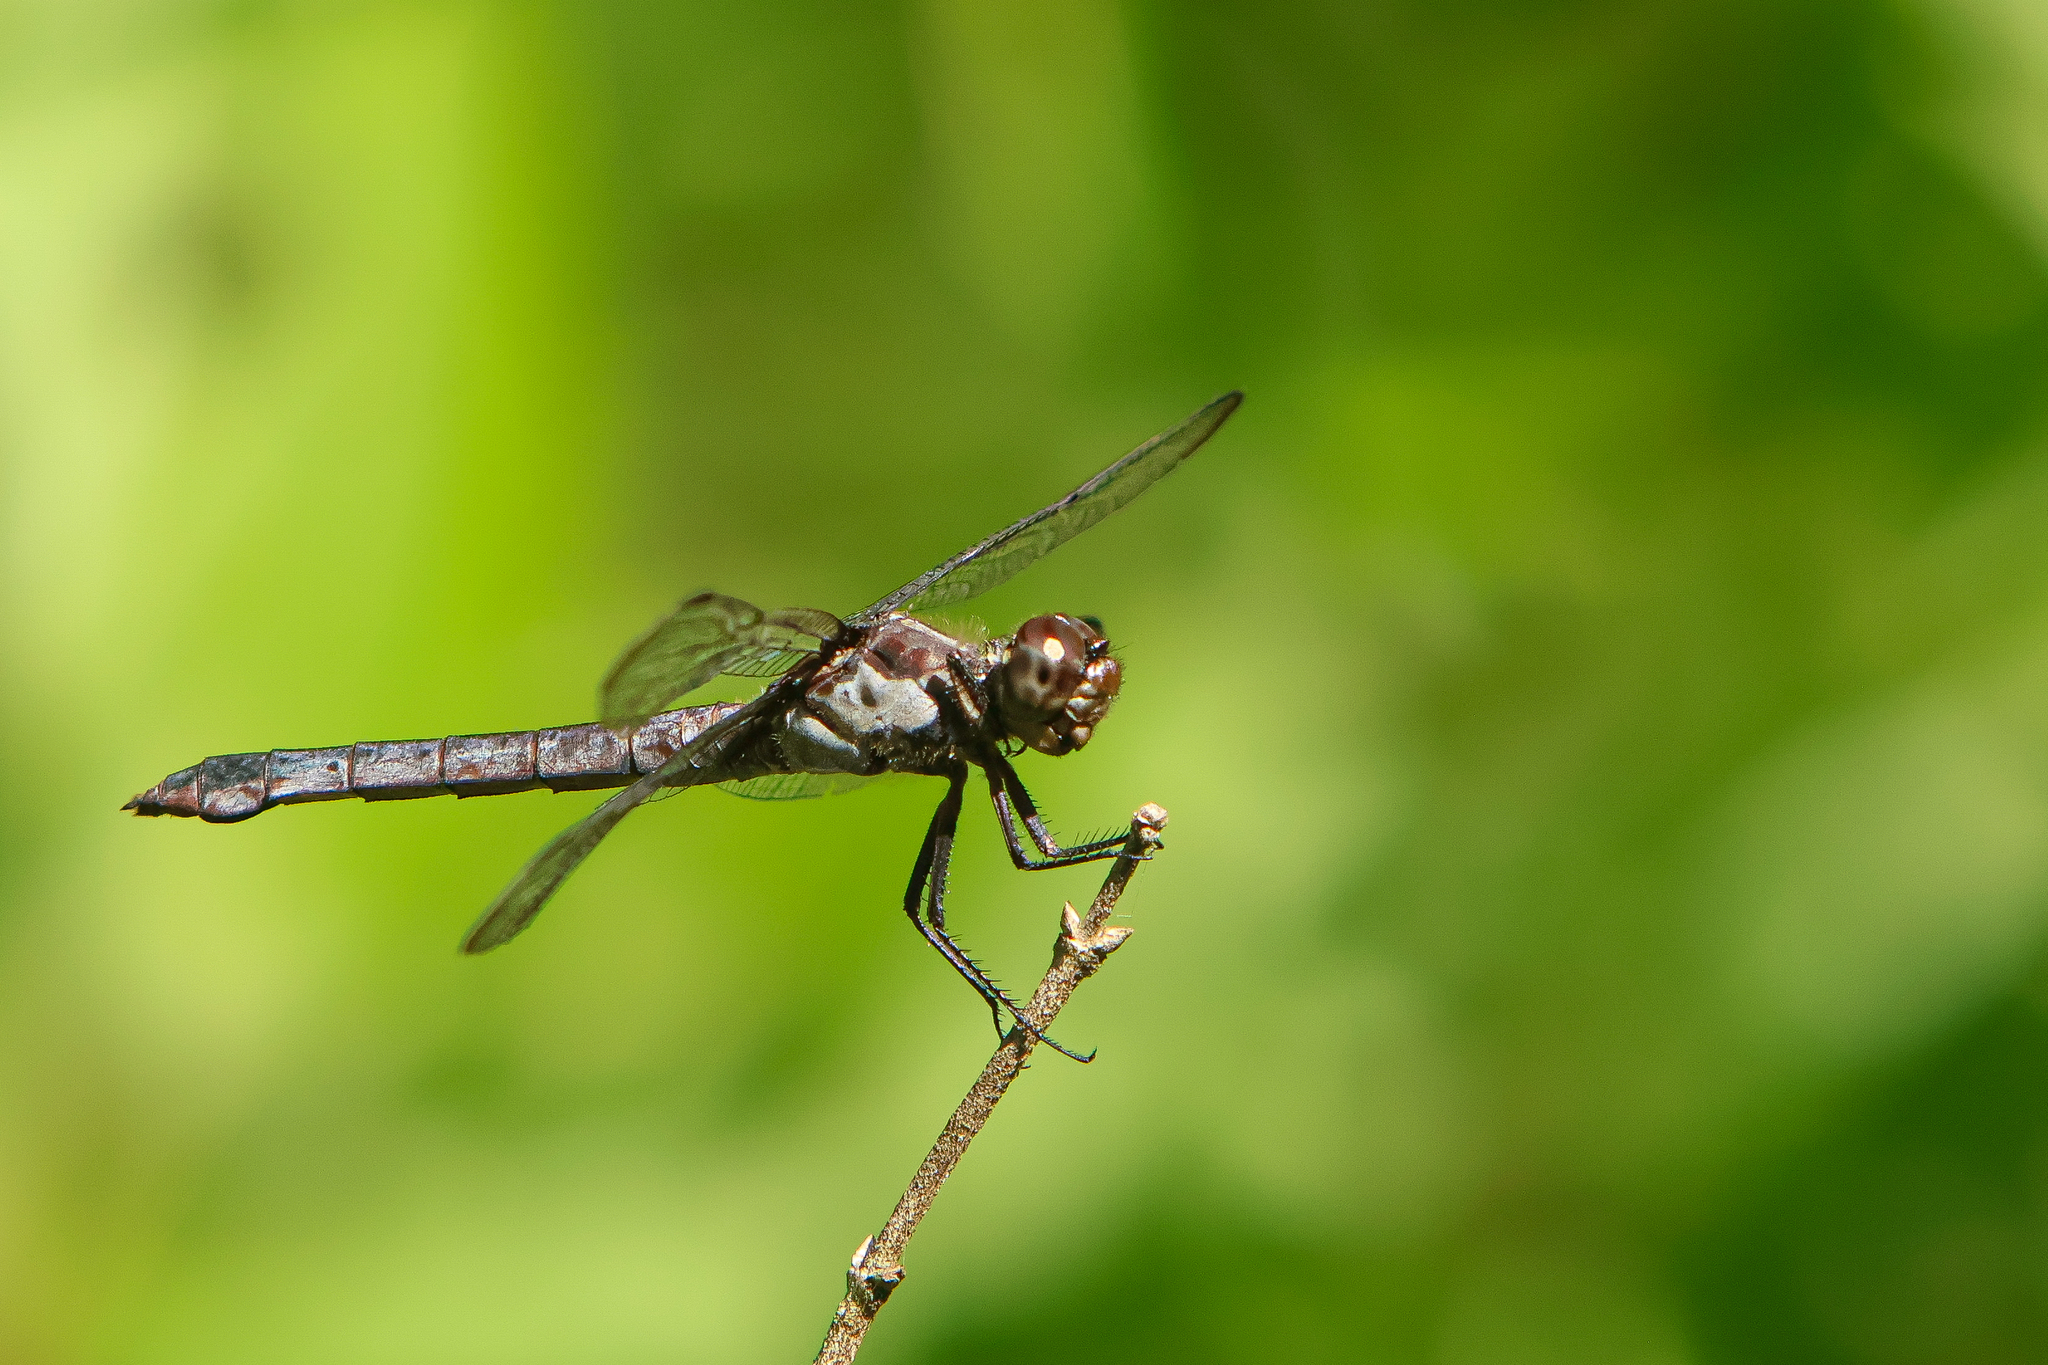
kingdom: Animalia
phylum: Arthropoda
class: Insecta
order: Odonata
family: Libellulidae
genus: Libellula
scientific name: Libellula incesta
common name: Slaty skimmer
